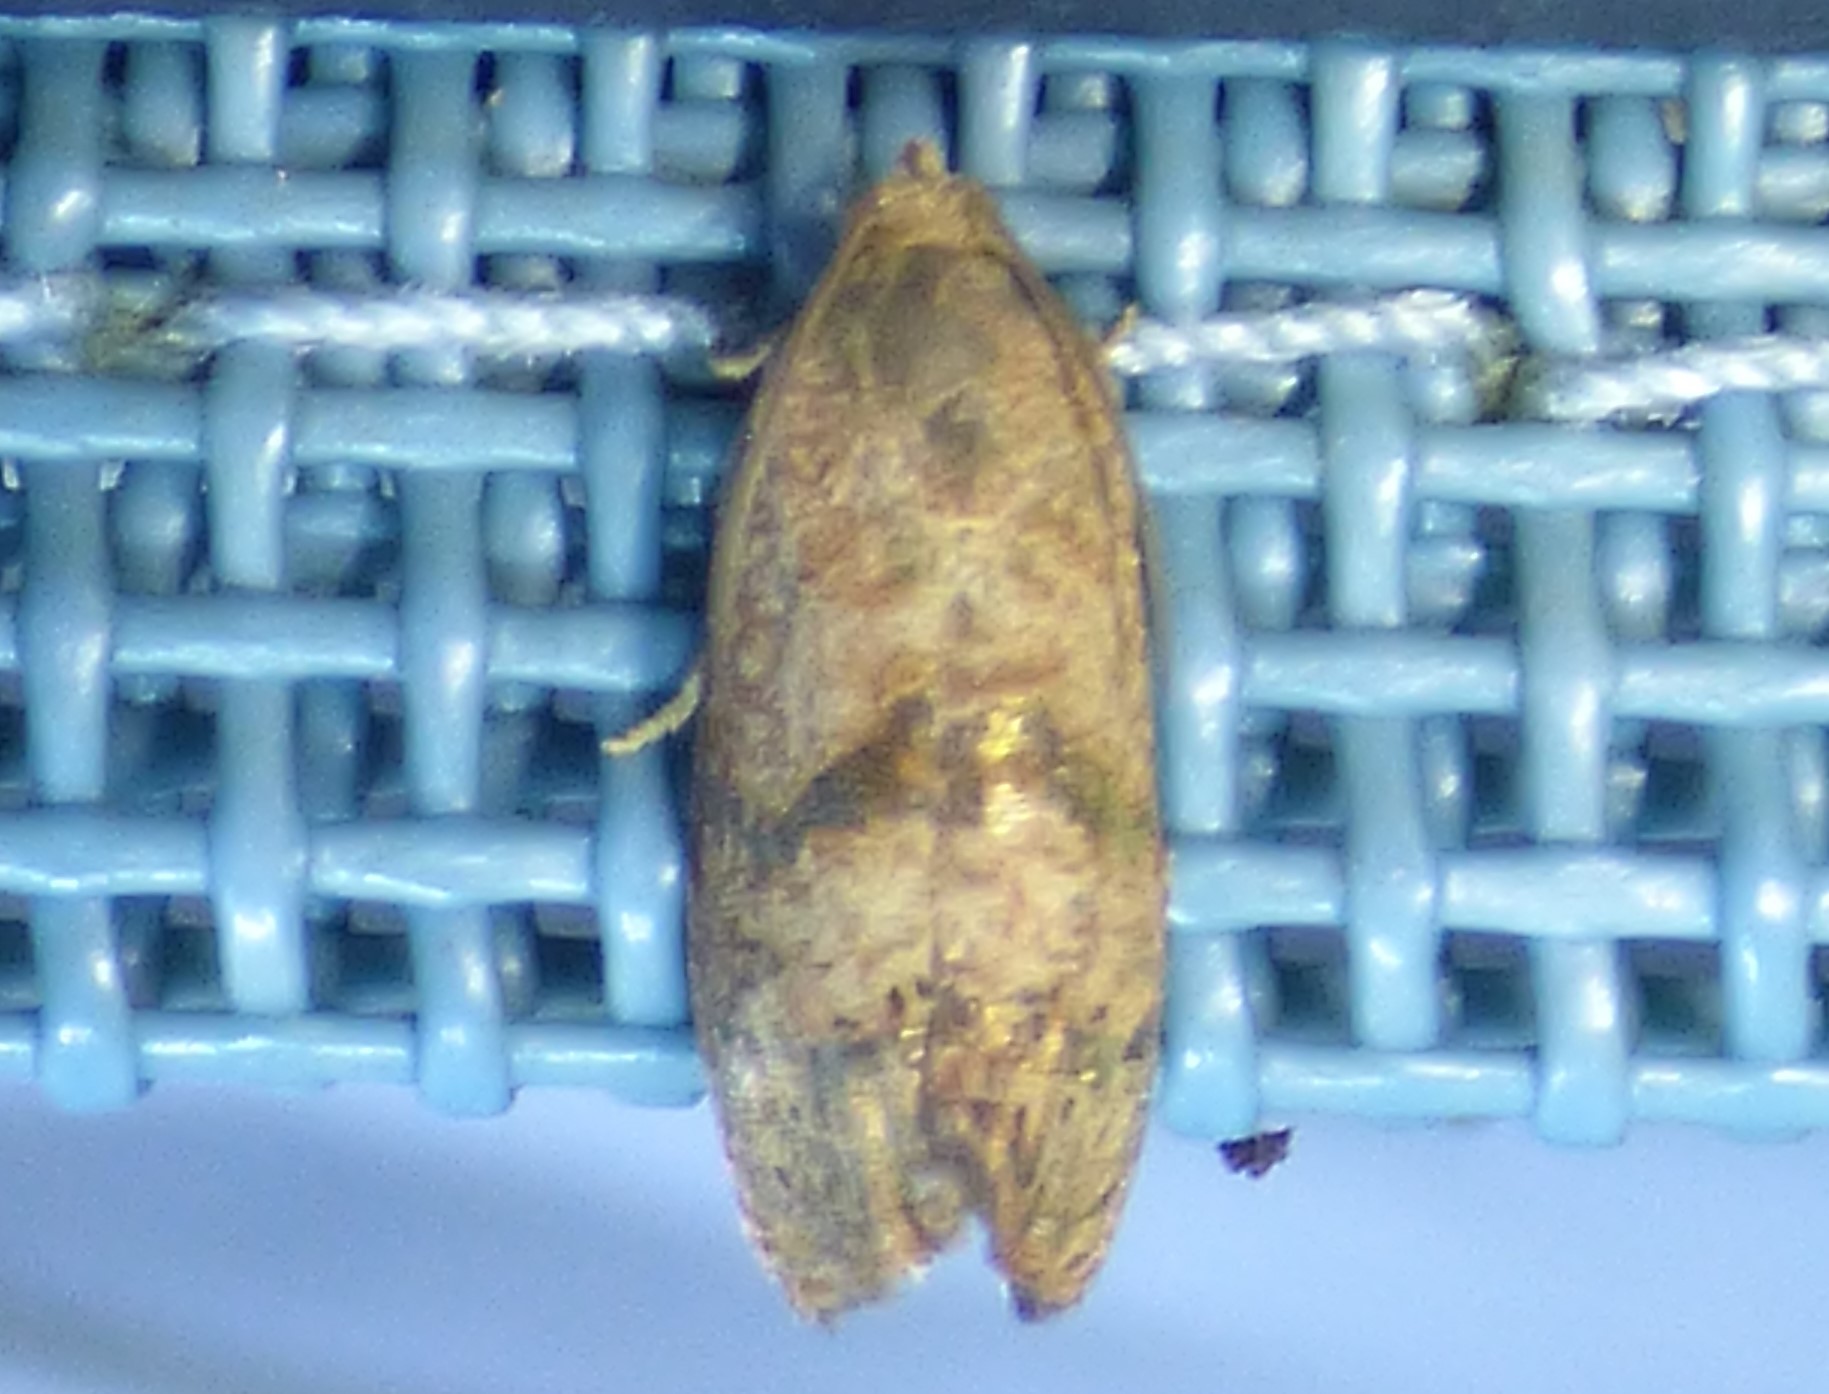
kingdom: Animalia
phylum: Arthropoda
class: Insecta
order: Lepidoptera
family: Tortricidae
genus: Cydia
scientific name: Cydia latiferreana
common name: Filbertworm moth
